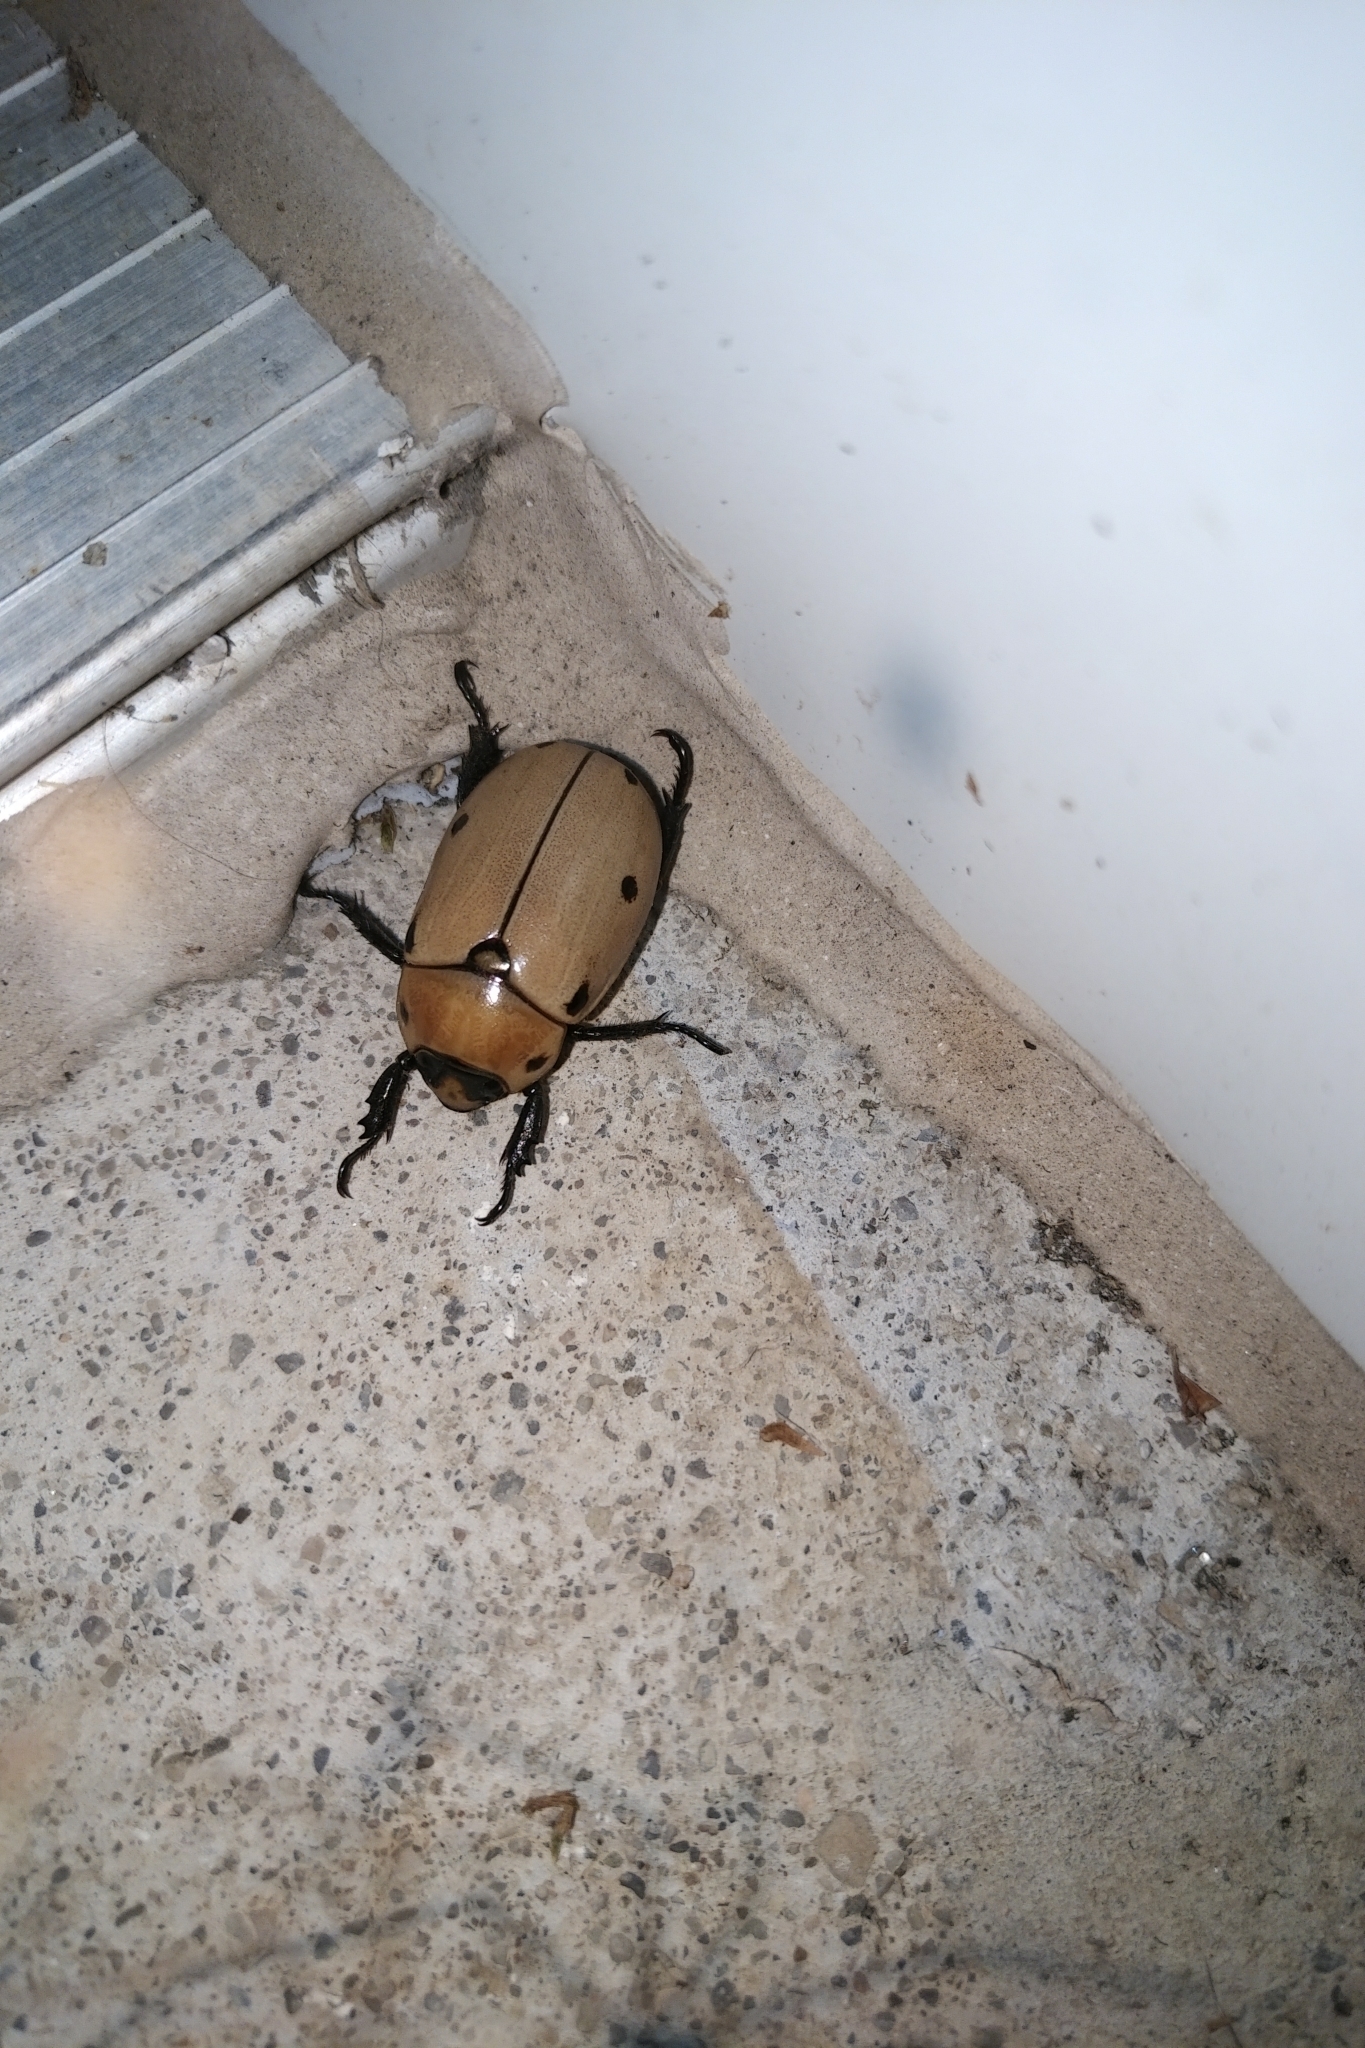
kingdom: Animalia
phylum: Arthropoda
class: Insecta
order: Coleoptera
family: Scarabaeidae
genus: Pelidnota
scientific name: Pelidnota punctata
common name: Grapevine beetle
